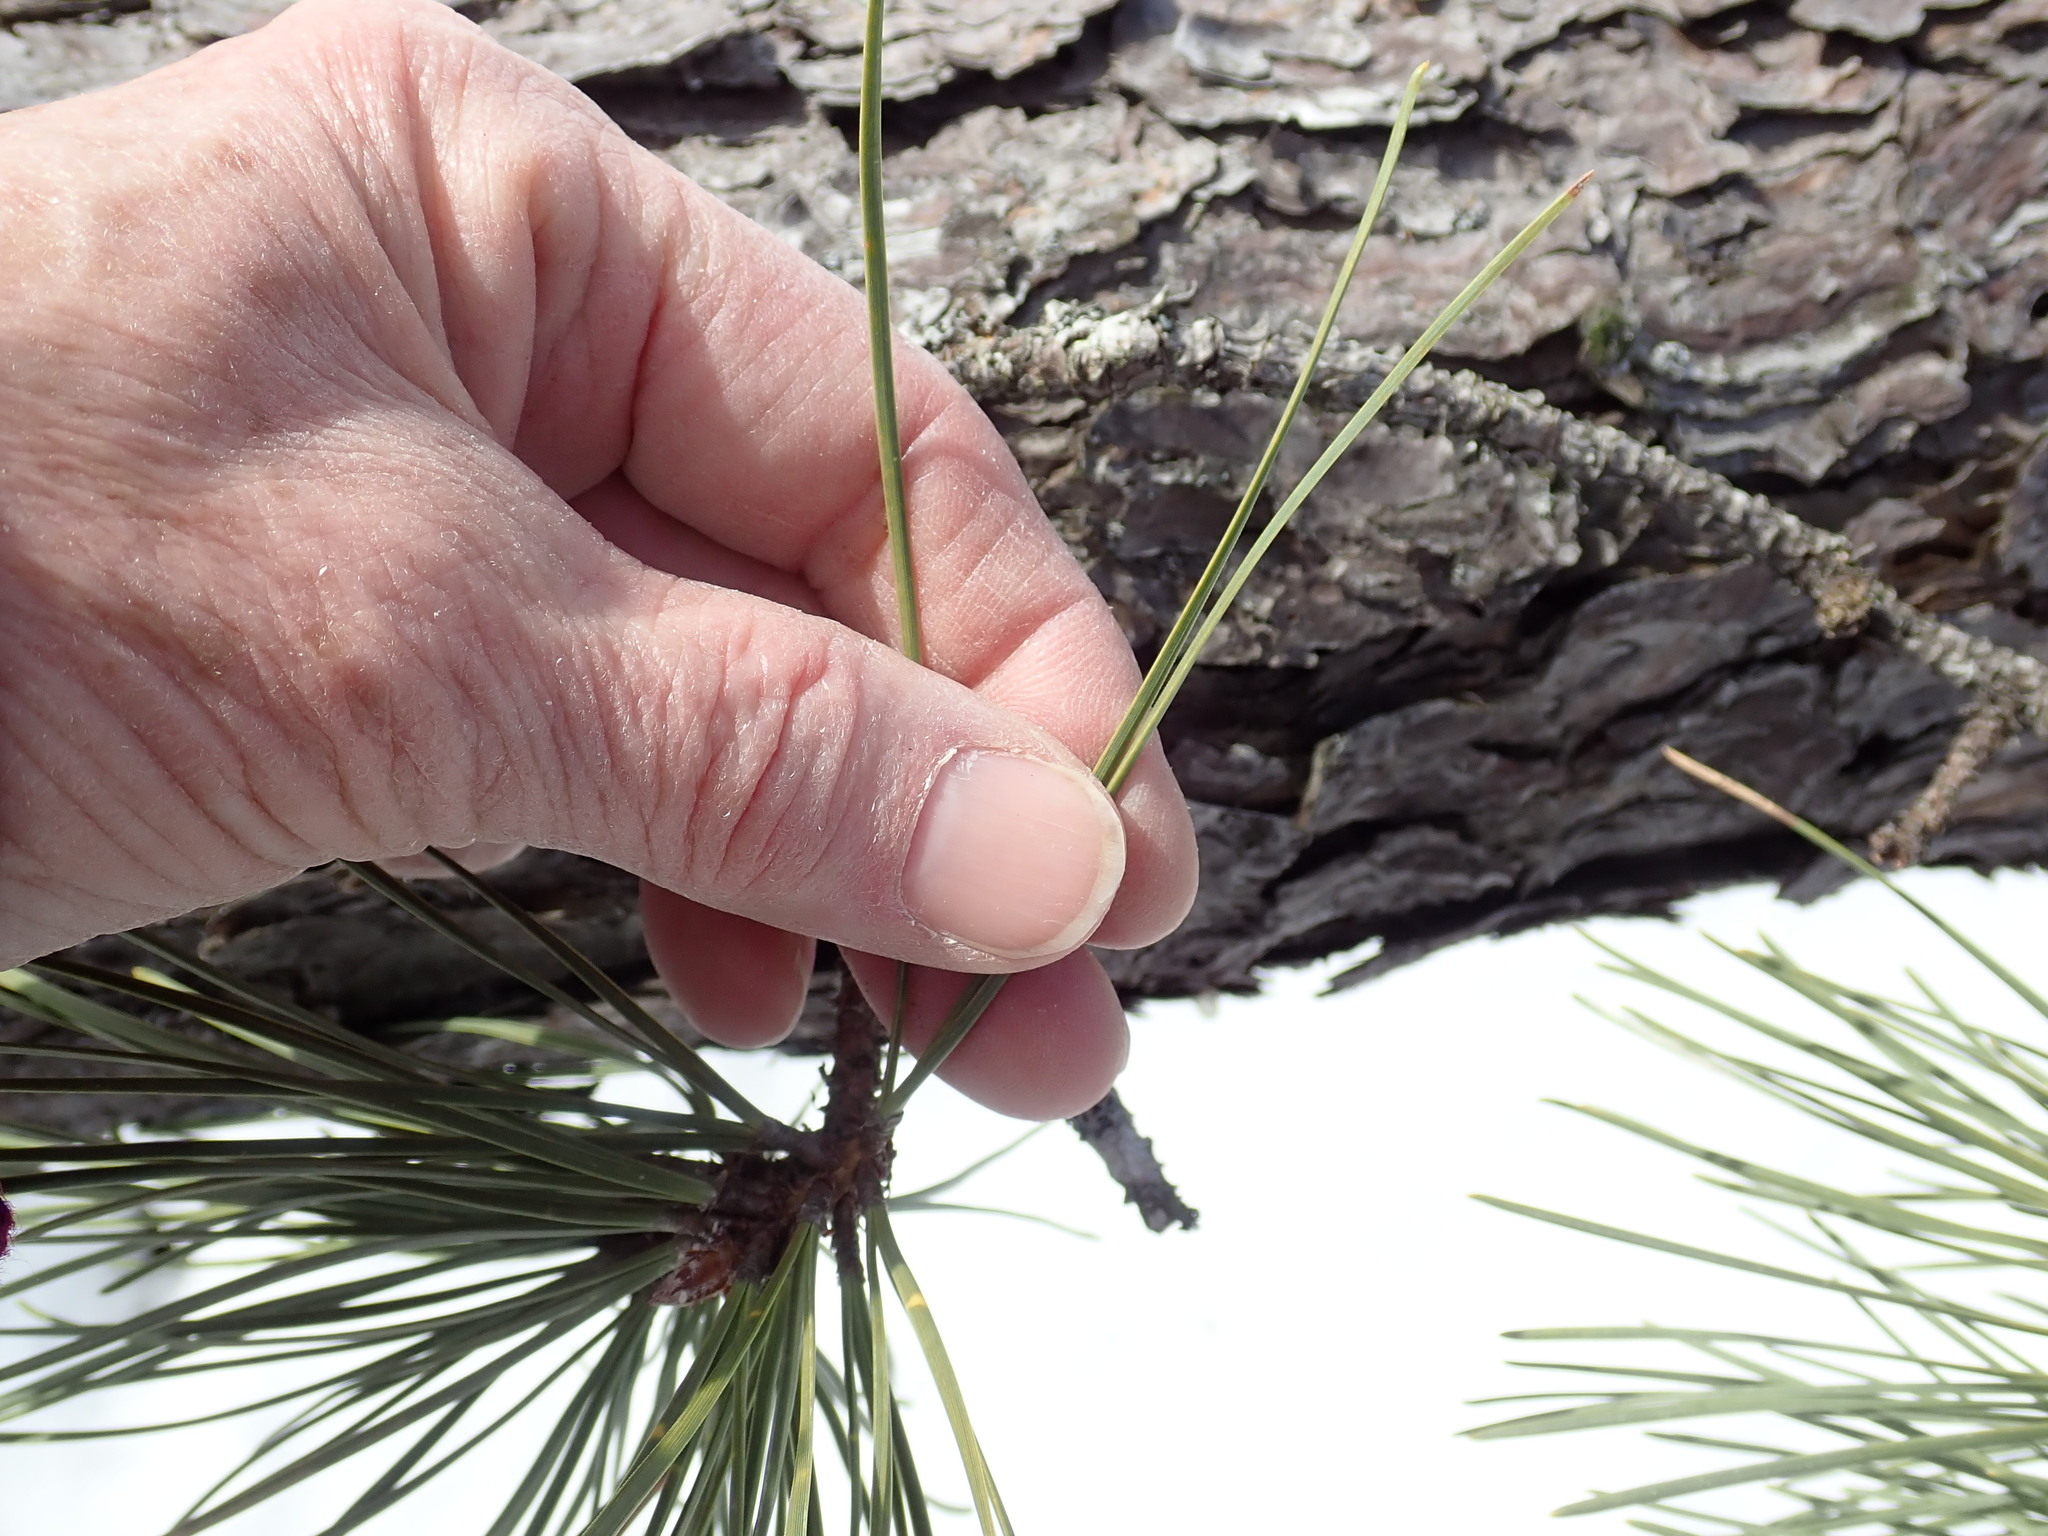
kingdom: Plantae
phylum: Tracheophyta
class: Pinopsida
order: Pinales
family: Pinaceae
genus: Pinus
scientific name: Pinus rigida
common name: Pitch pine
